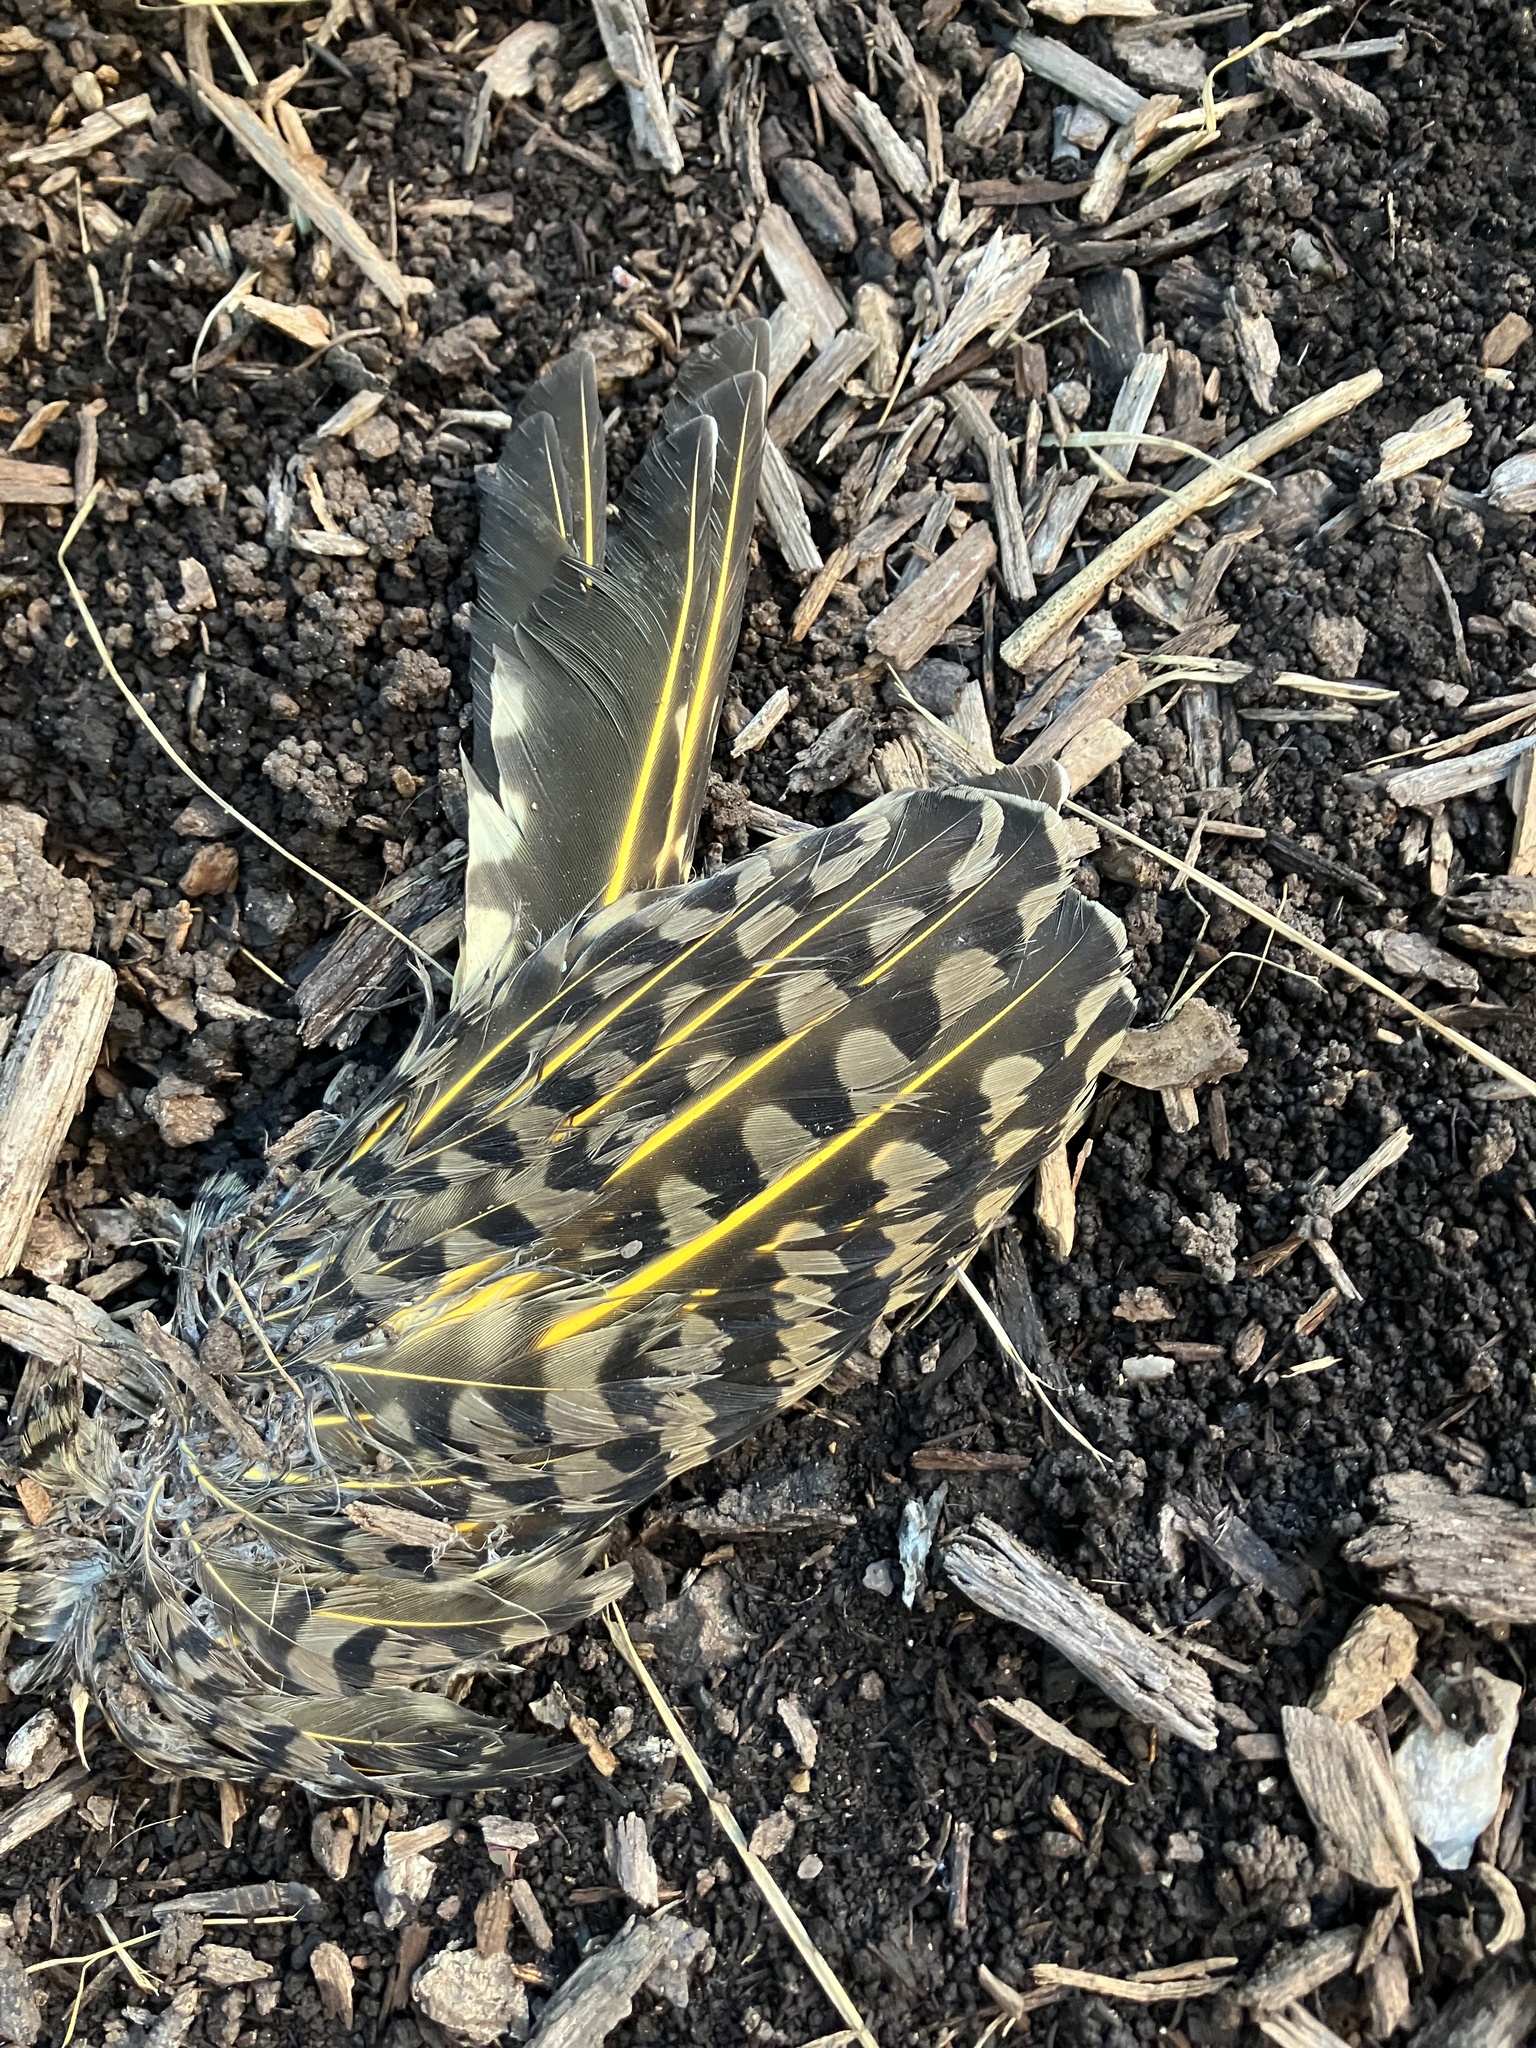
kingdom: Animalia
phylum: Chordata
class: Aves
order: Piciformes
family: Picidae
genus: Colaptes
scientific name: Colaptes auratus
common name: Northern flicker
